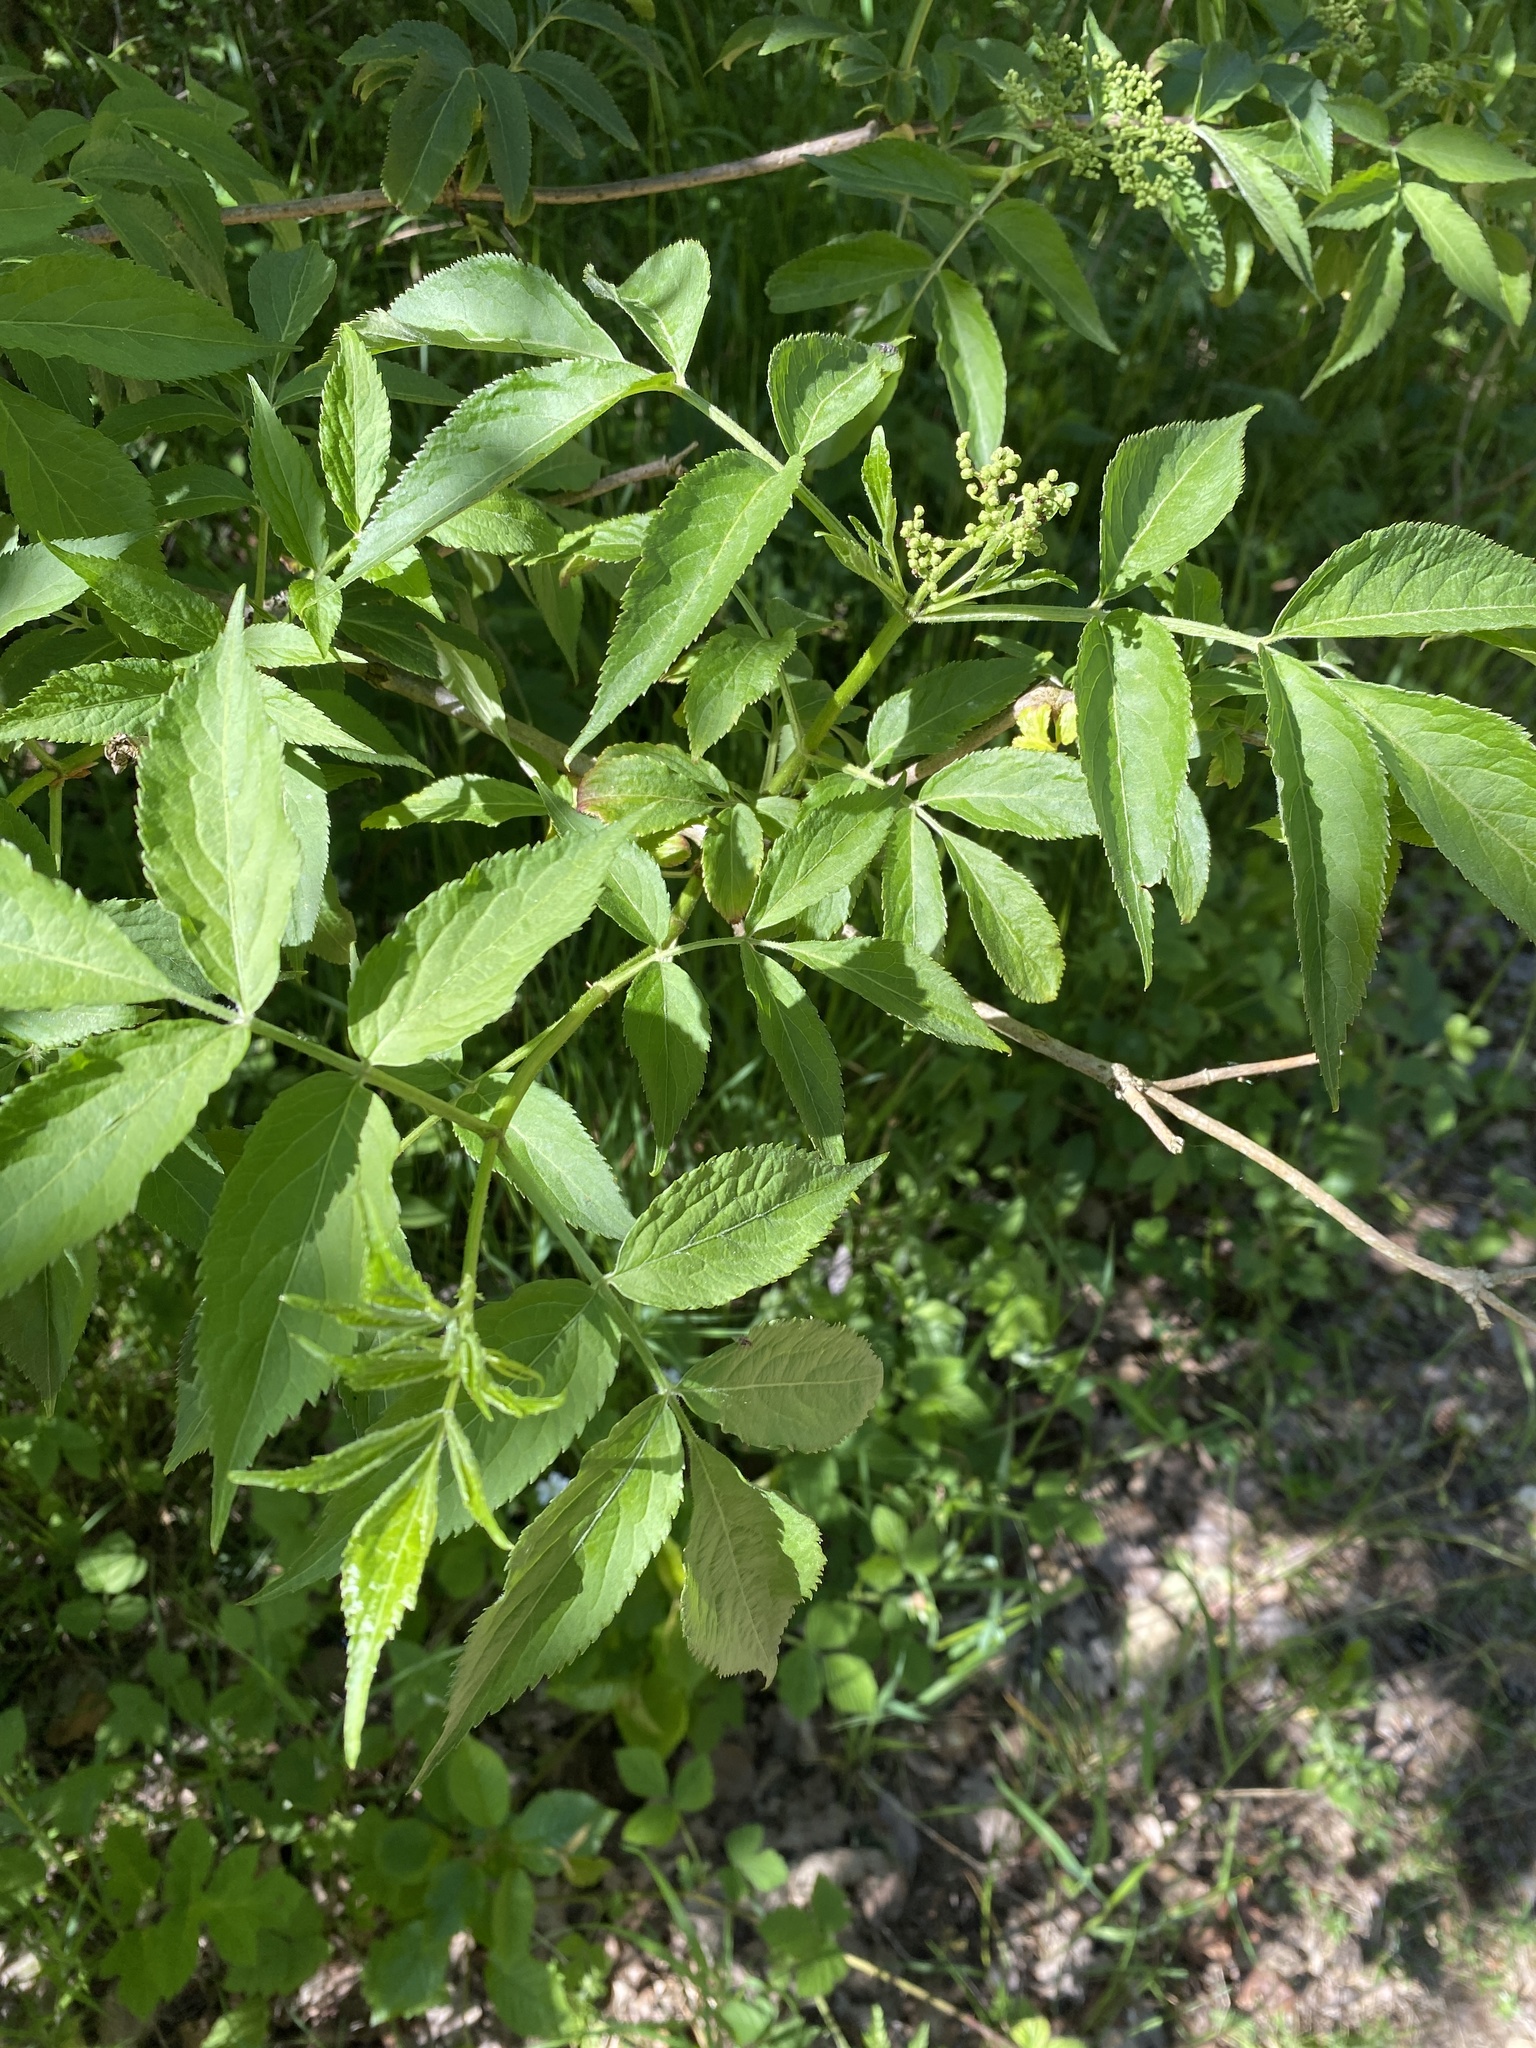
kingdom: Plantae
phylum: Tracheophyta
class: Magnoliopsida
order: Dipsacales
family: Viburnaceae
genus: Sambucus
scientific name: Sambucus nigra
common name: Elder
